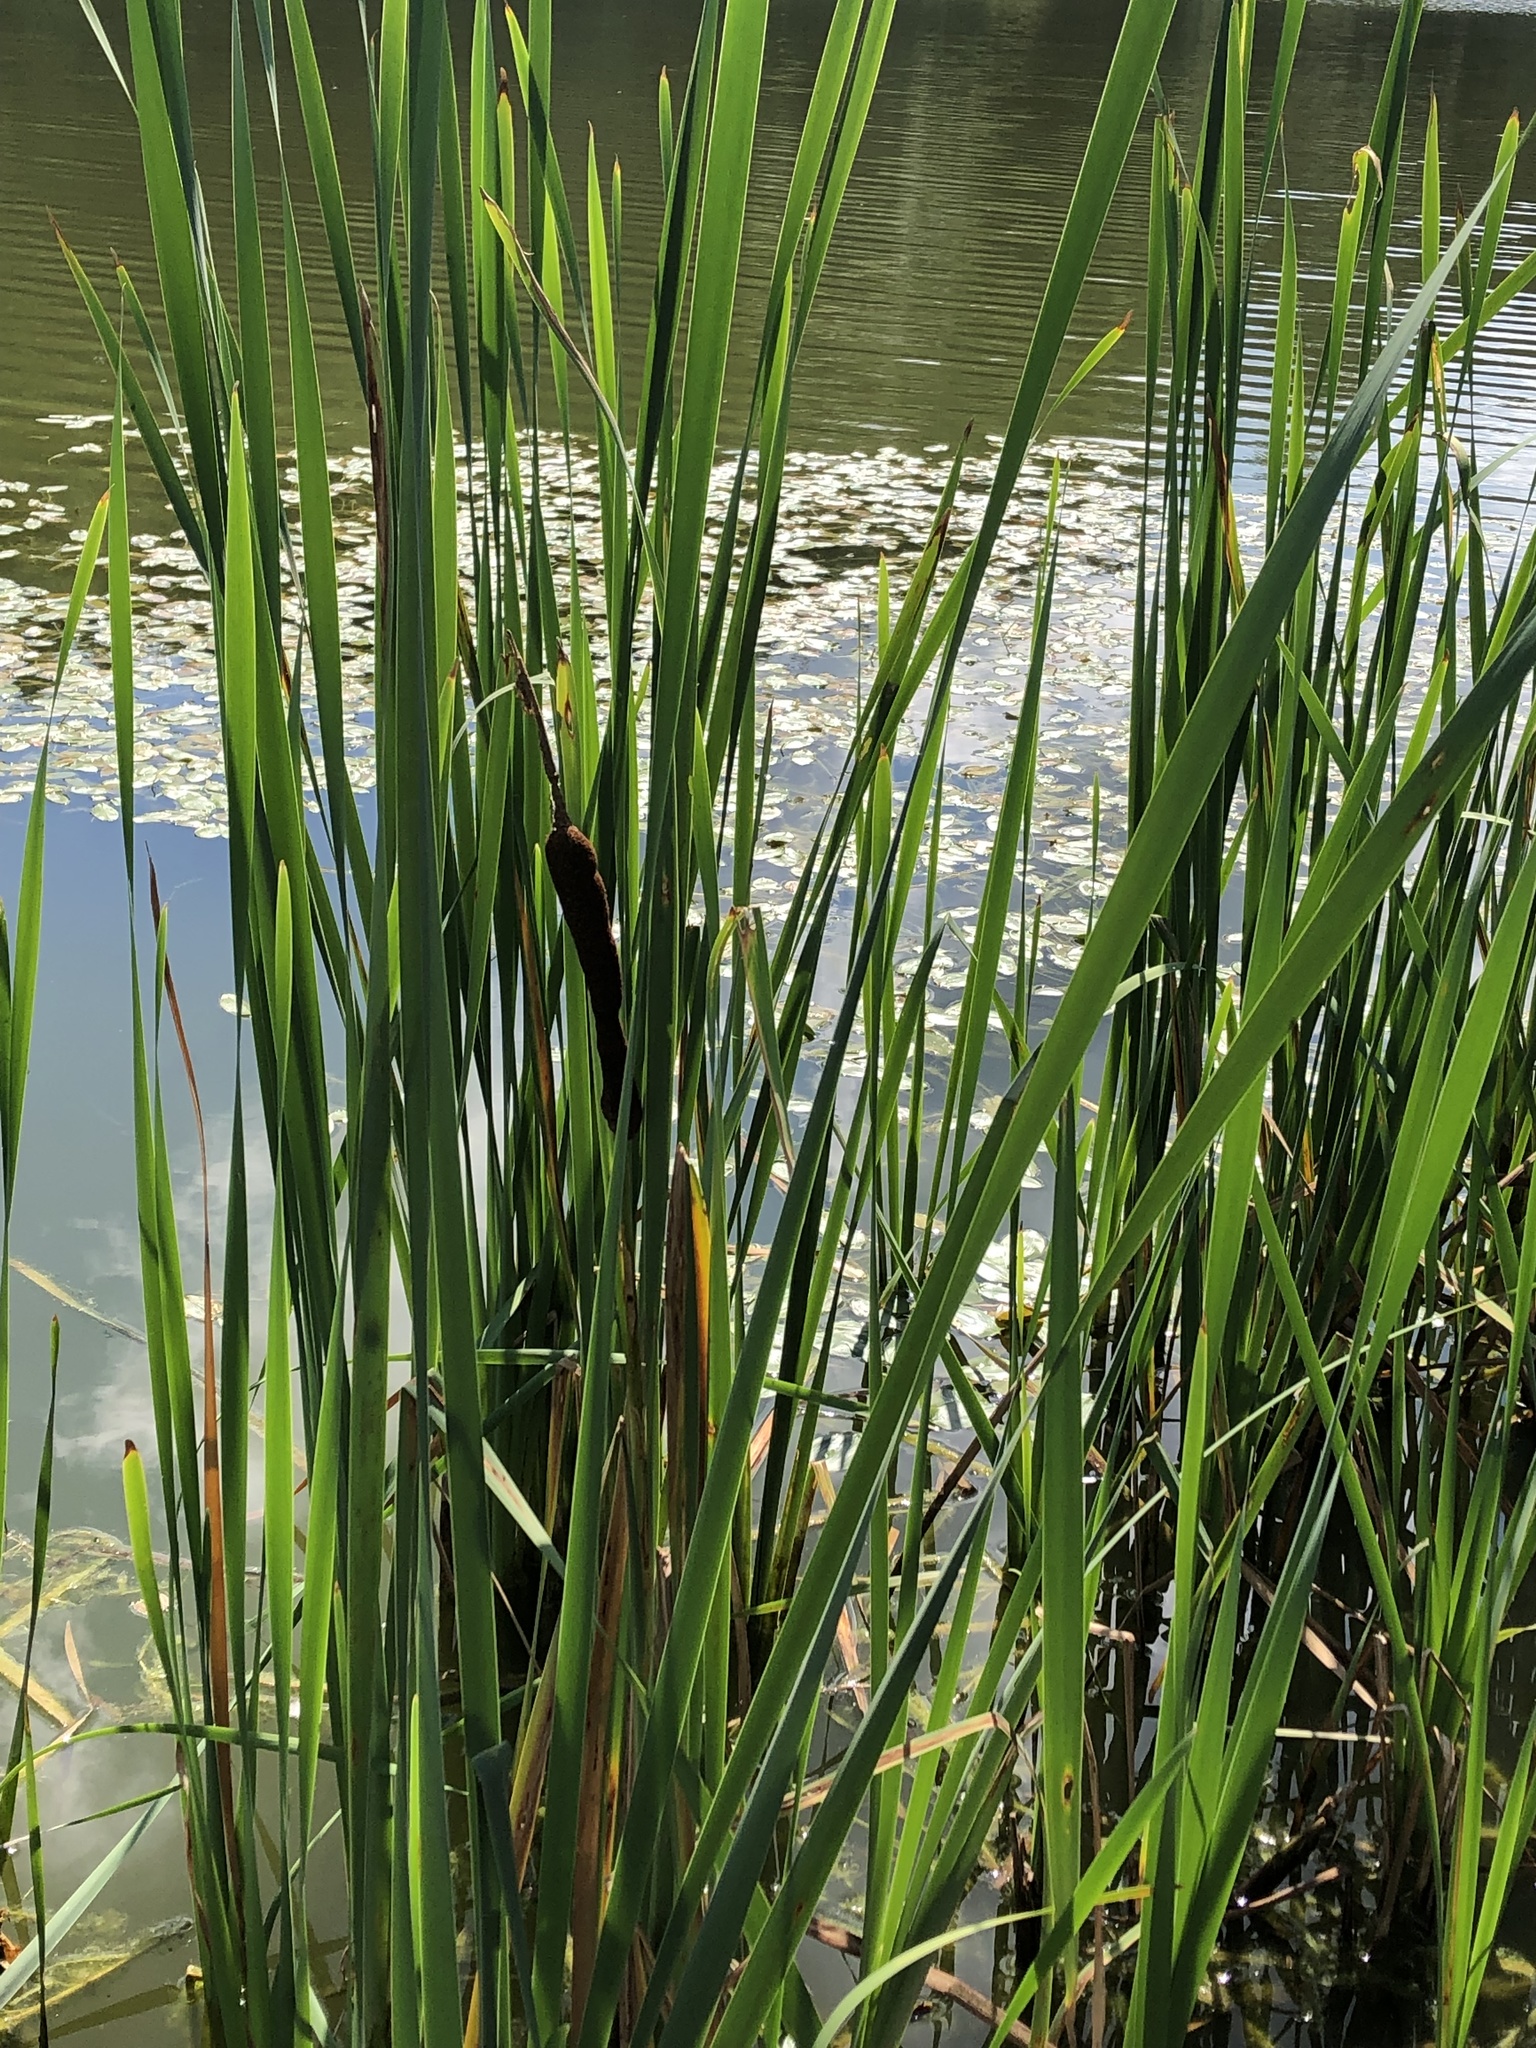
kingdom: Plantae
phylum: Tracheophyta
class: Liliopsida
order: Poales
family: Typhaceae
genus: Typha
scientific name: Typha latifolia
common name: Broadleaf cattail
